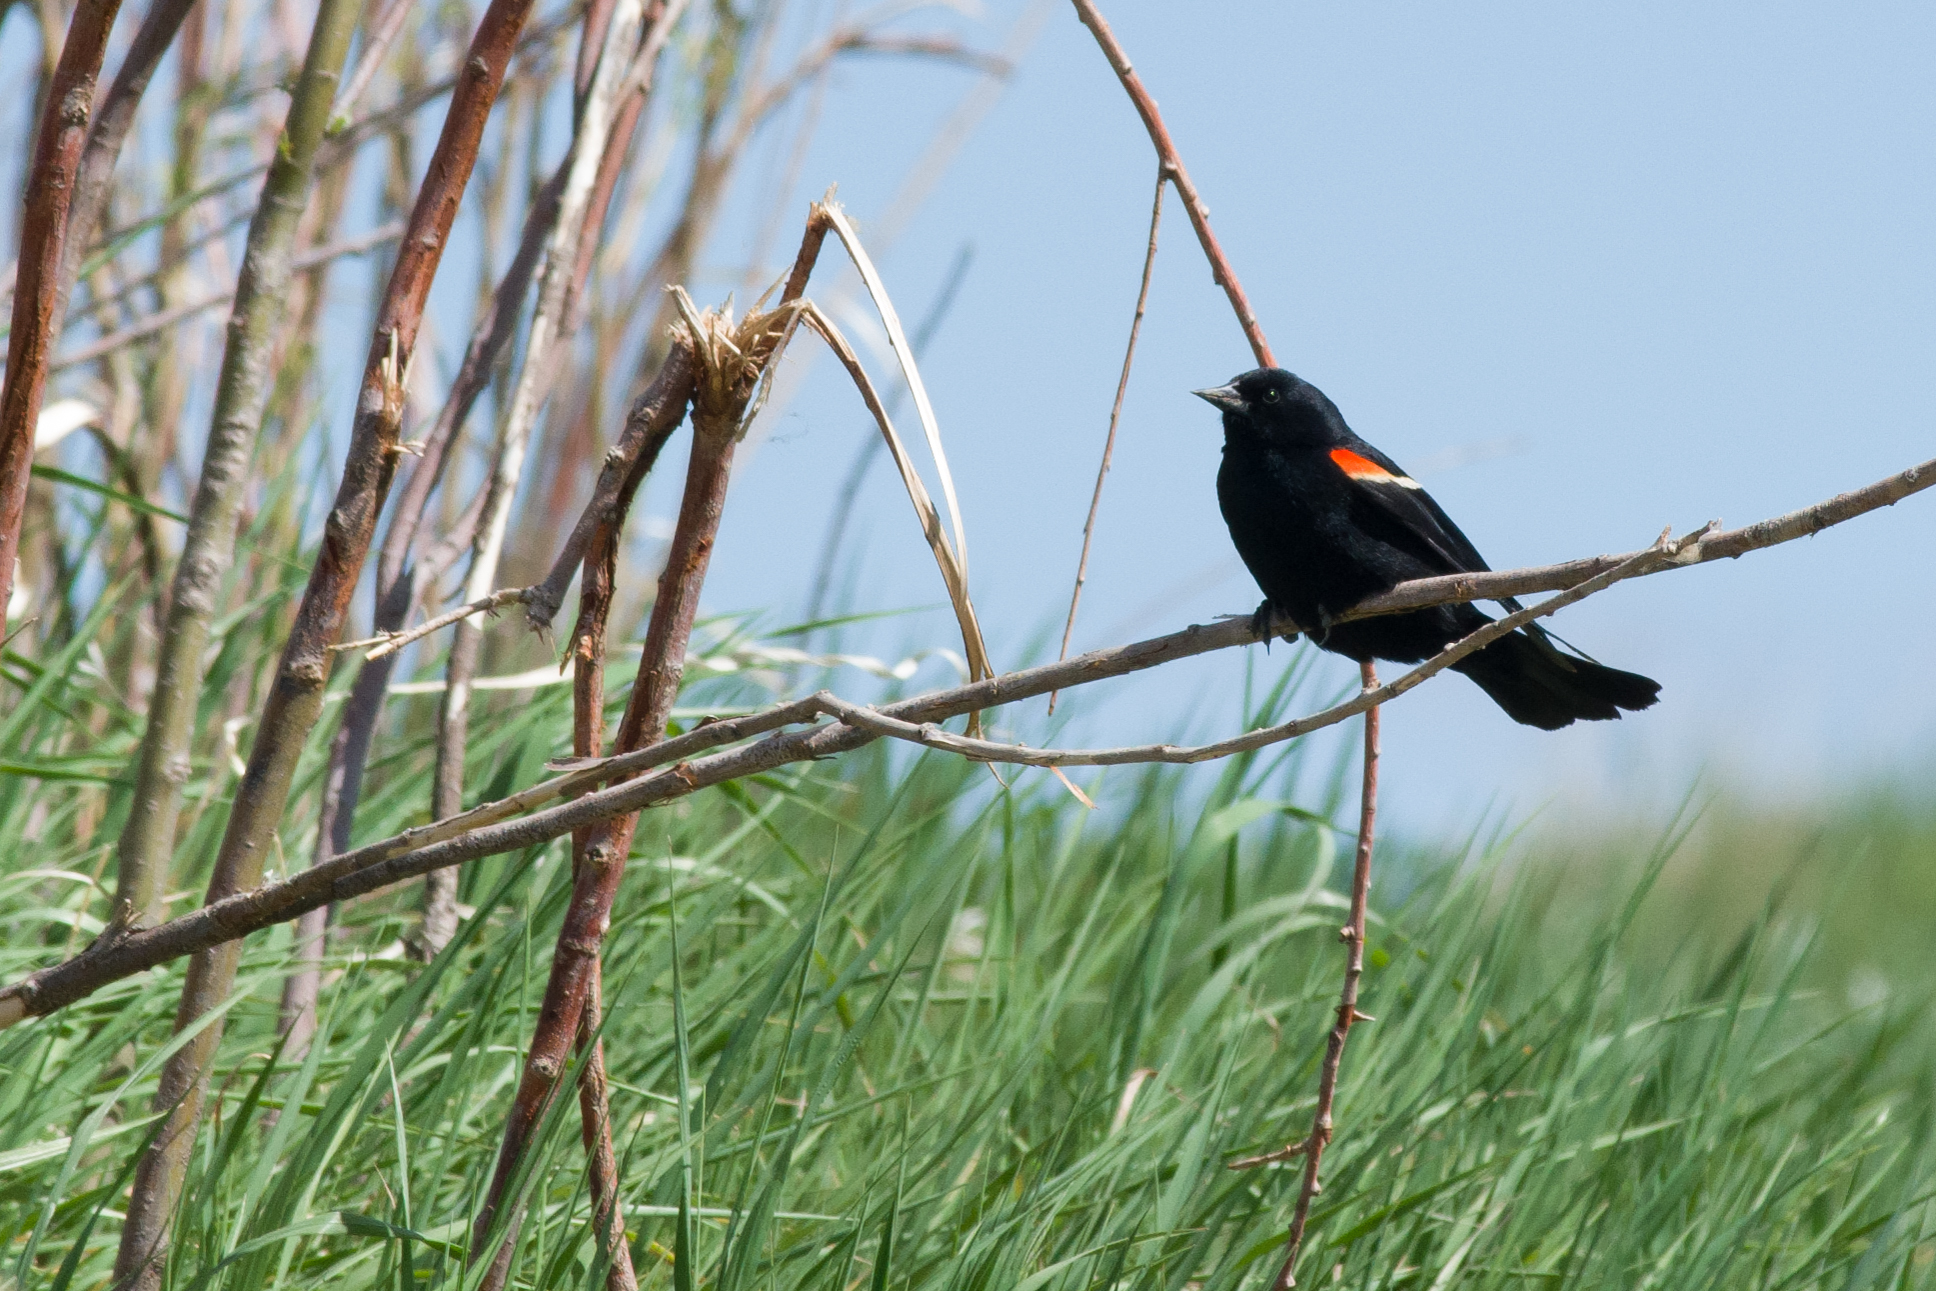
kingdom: Animalia
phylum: Chordata
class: Aves
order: Passeriformes
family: Icteridae
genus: Agelaius
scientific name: Agelaius phoeniceus
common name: Red-winged blackbird
